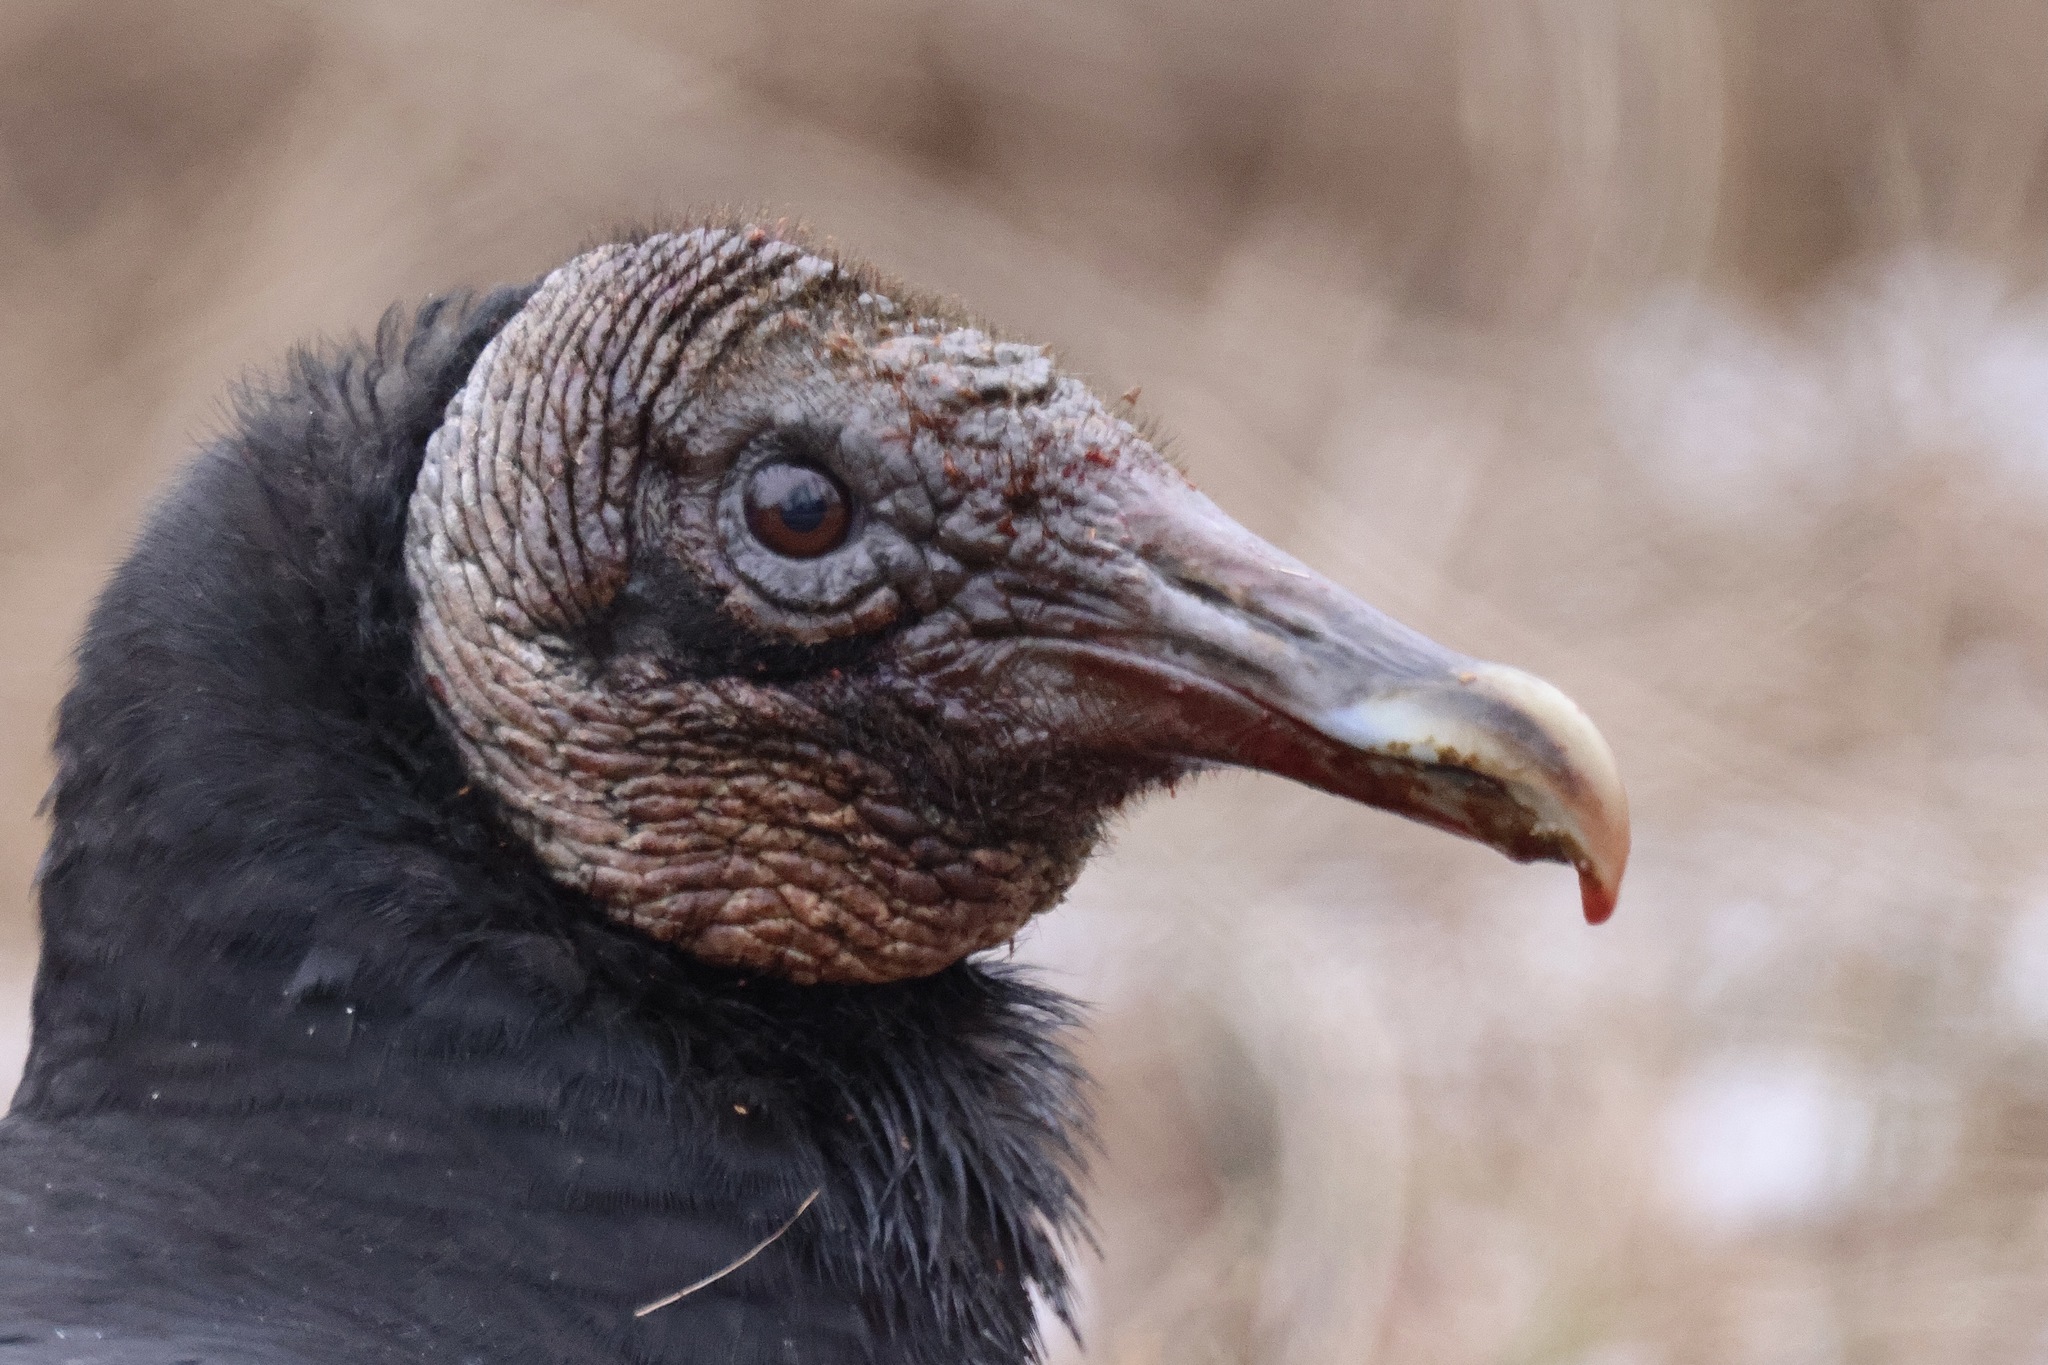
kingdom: Animalia
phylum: Chordata
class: Aves
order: Accipitriformes
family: Cathartidae
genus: Coragyps
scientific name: Coragyps atratus
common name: Black vulture
